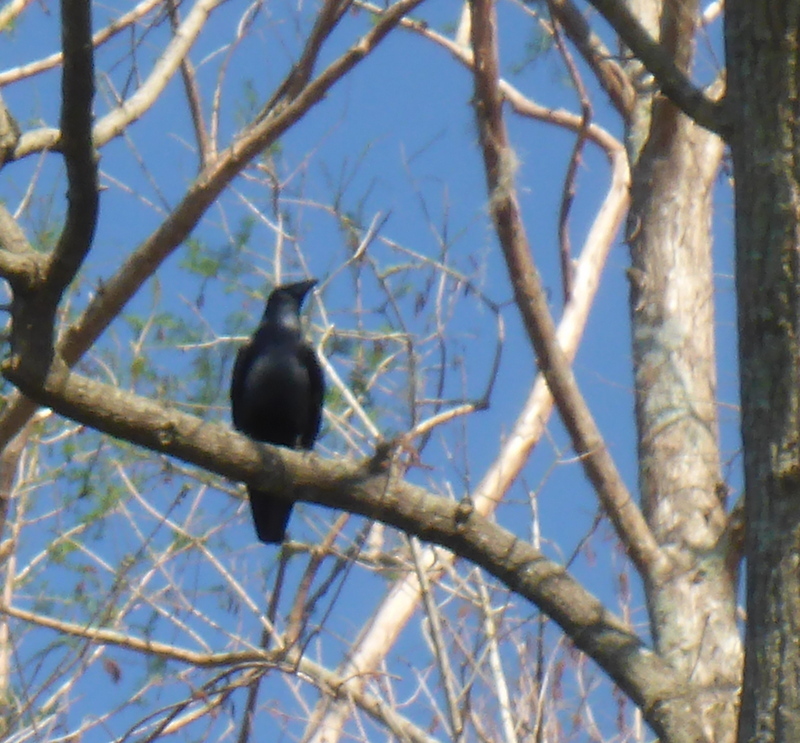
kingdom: Animalia
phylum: Chordata
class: Aves
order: Passeriformes
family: Corvidae
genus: Corvus
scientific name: Corvus
